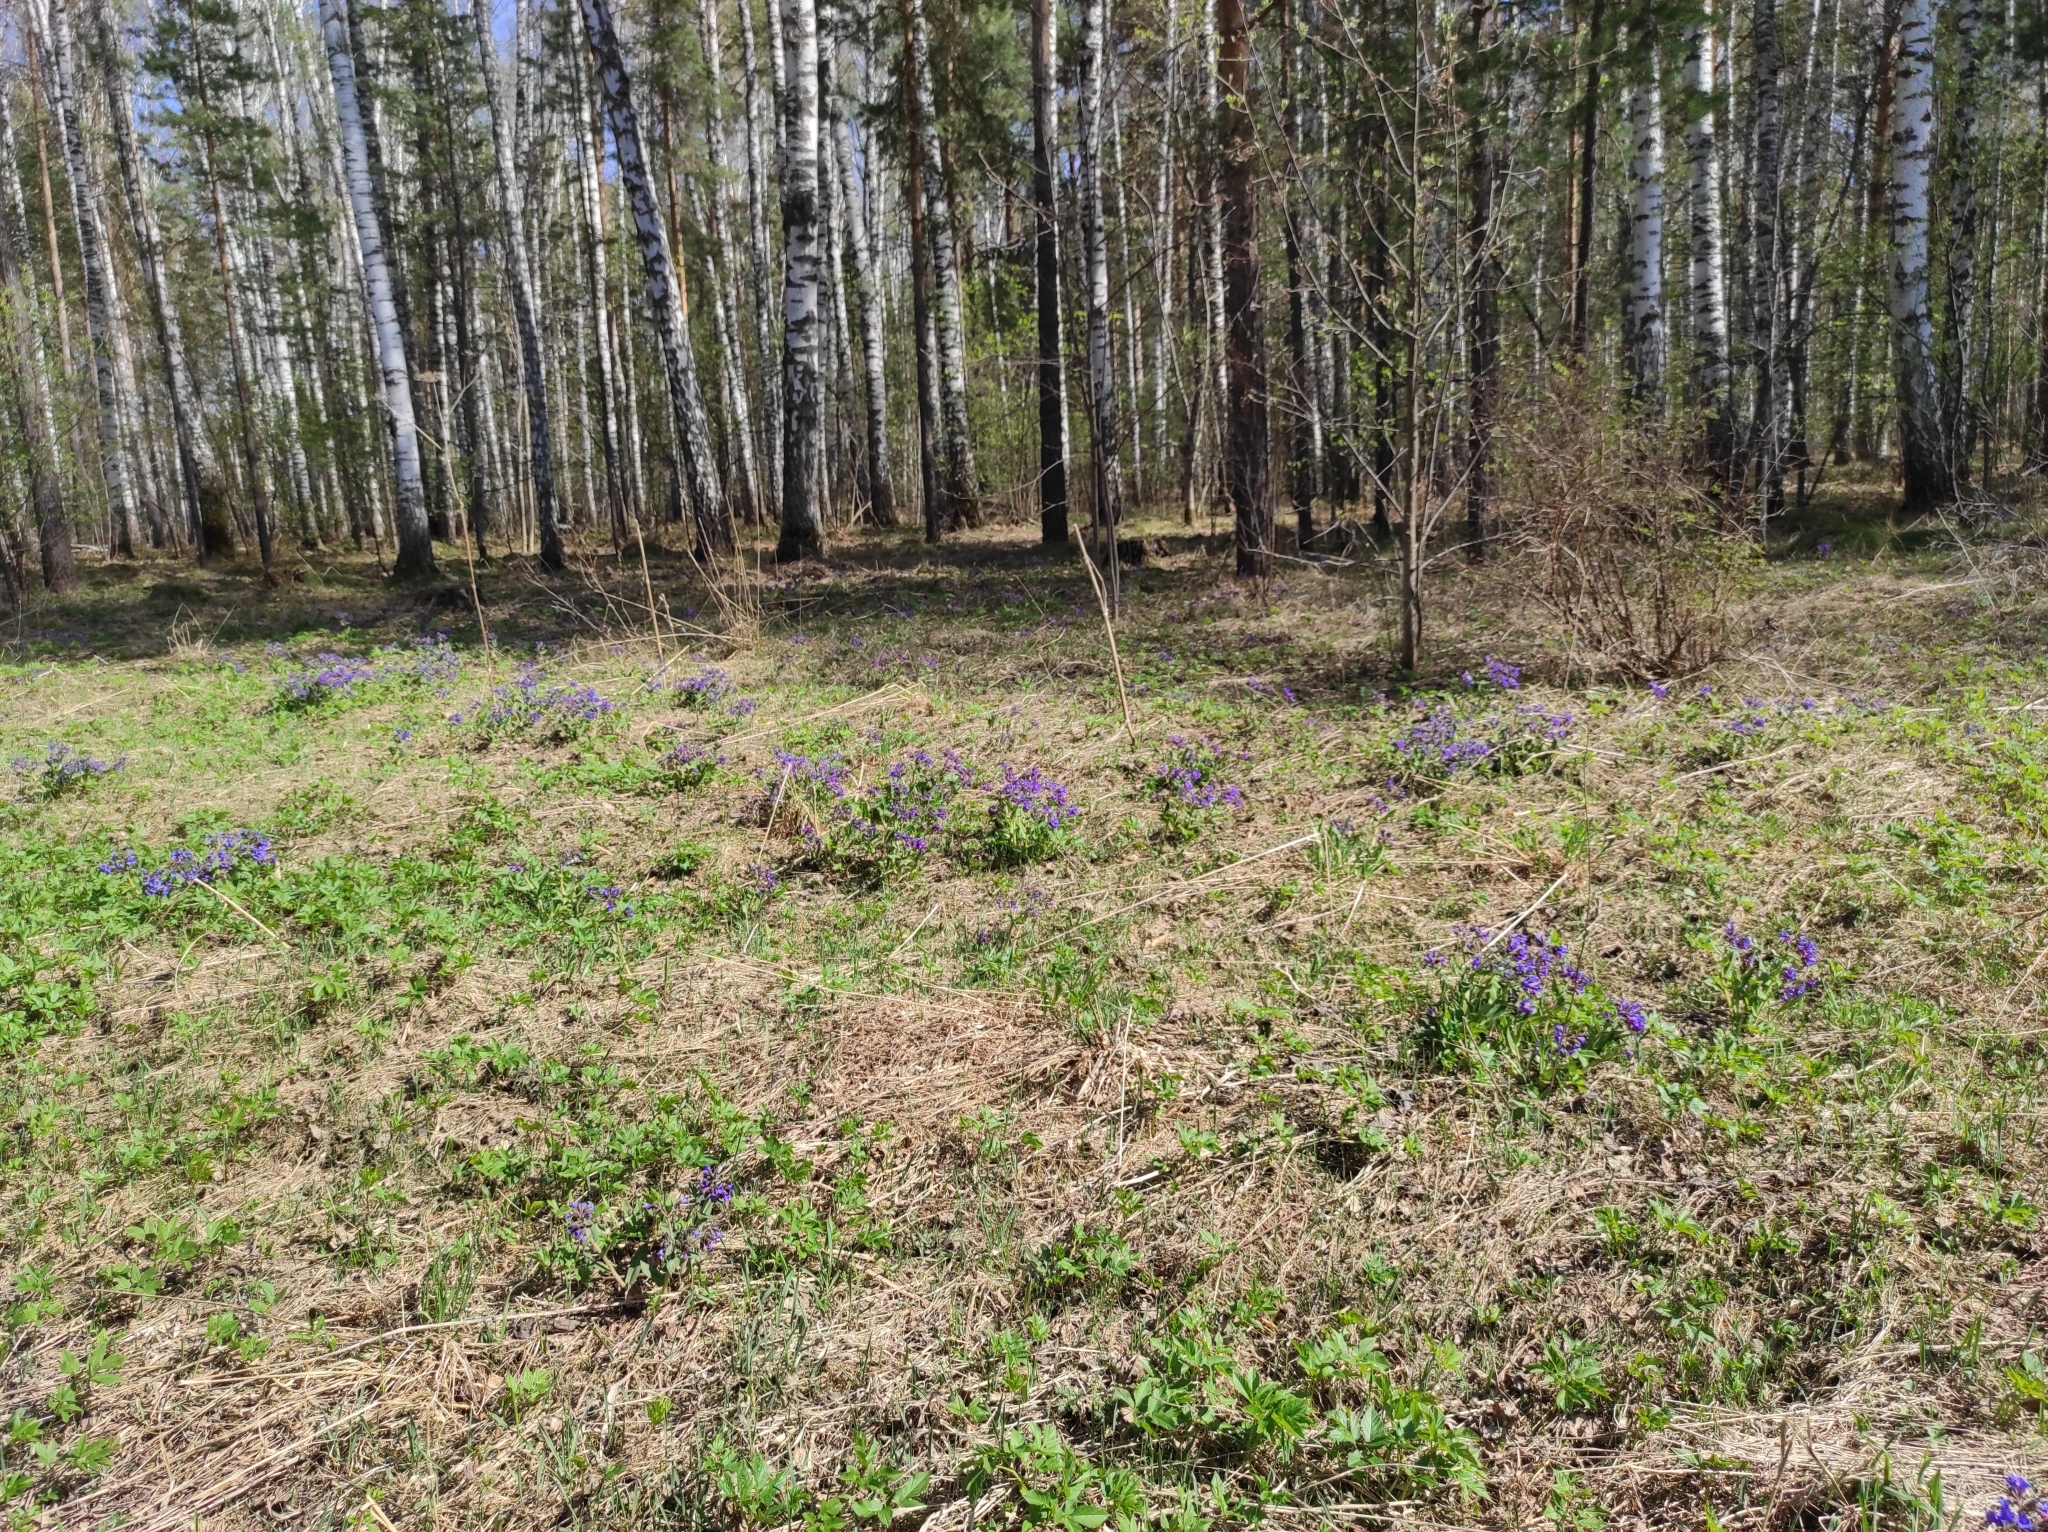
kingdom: Plantae
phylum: Tracheophyta
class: Pinopsida
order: Pinales
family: Pinaceae
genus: Pinus
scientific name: Pinus sylvestris
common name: Scots pine
